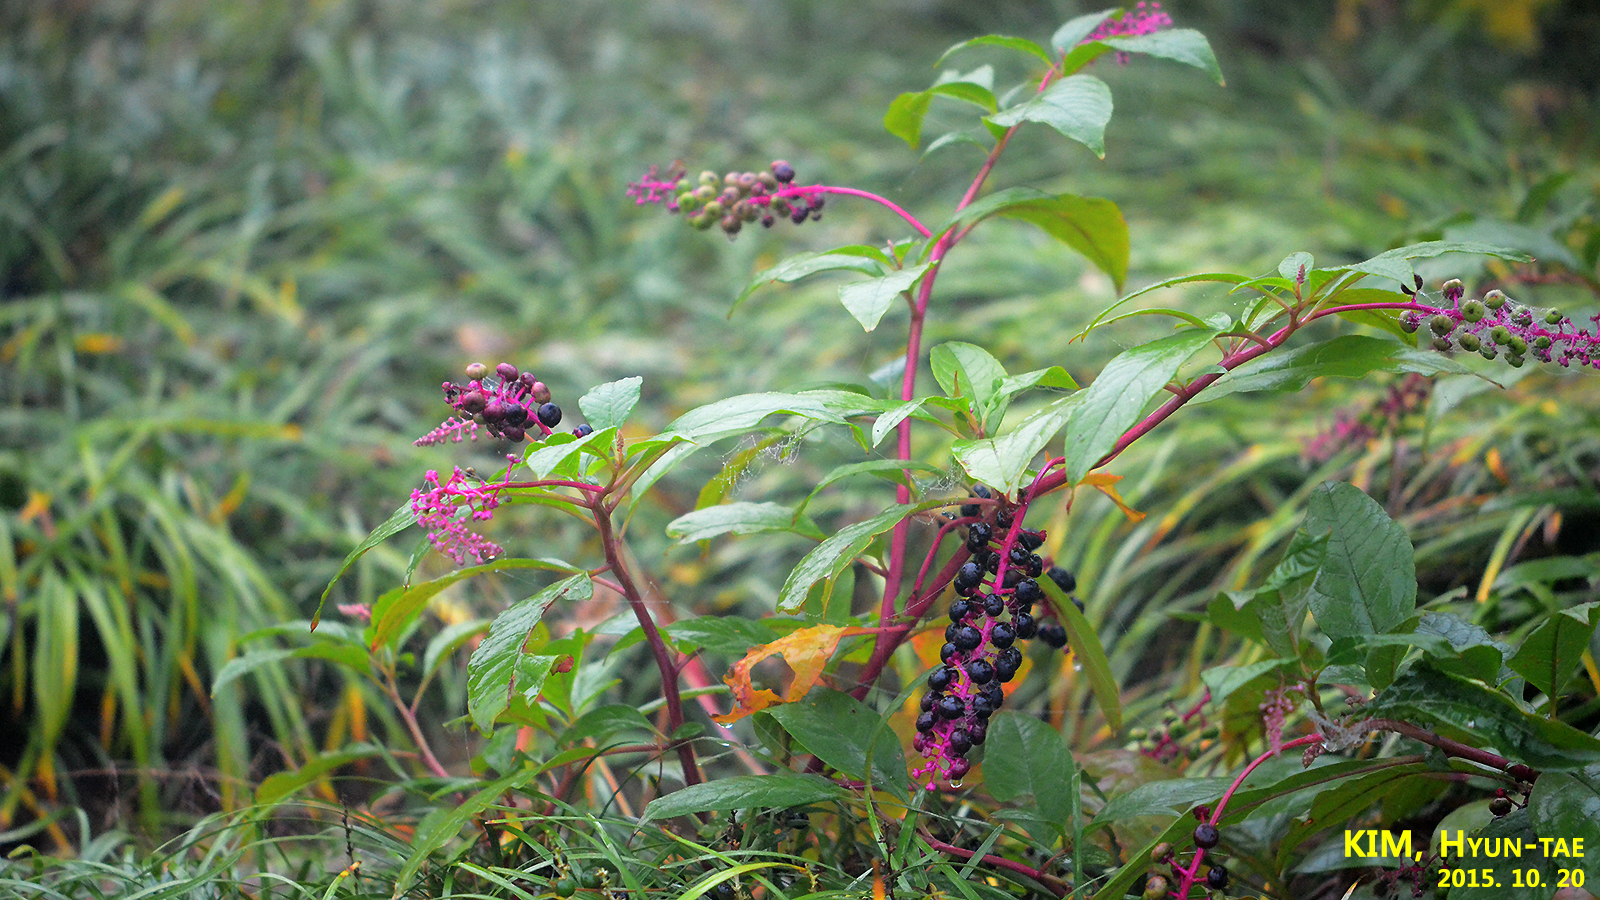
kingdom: Plantae
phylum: Tracheophyta
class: Magnoliopsida
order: Caryophyllales
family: Phytolaccaceae
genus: Phytolacca
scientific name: Phytolacca americana
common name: American pokeweed
